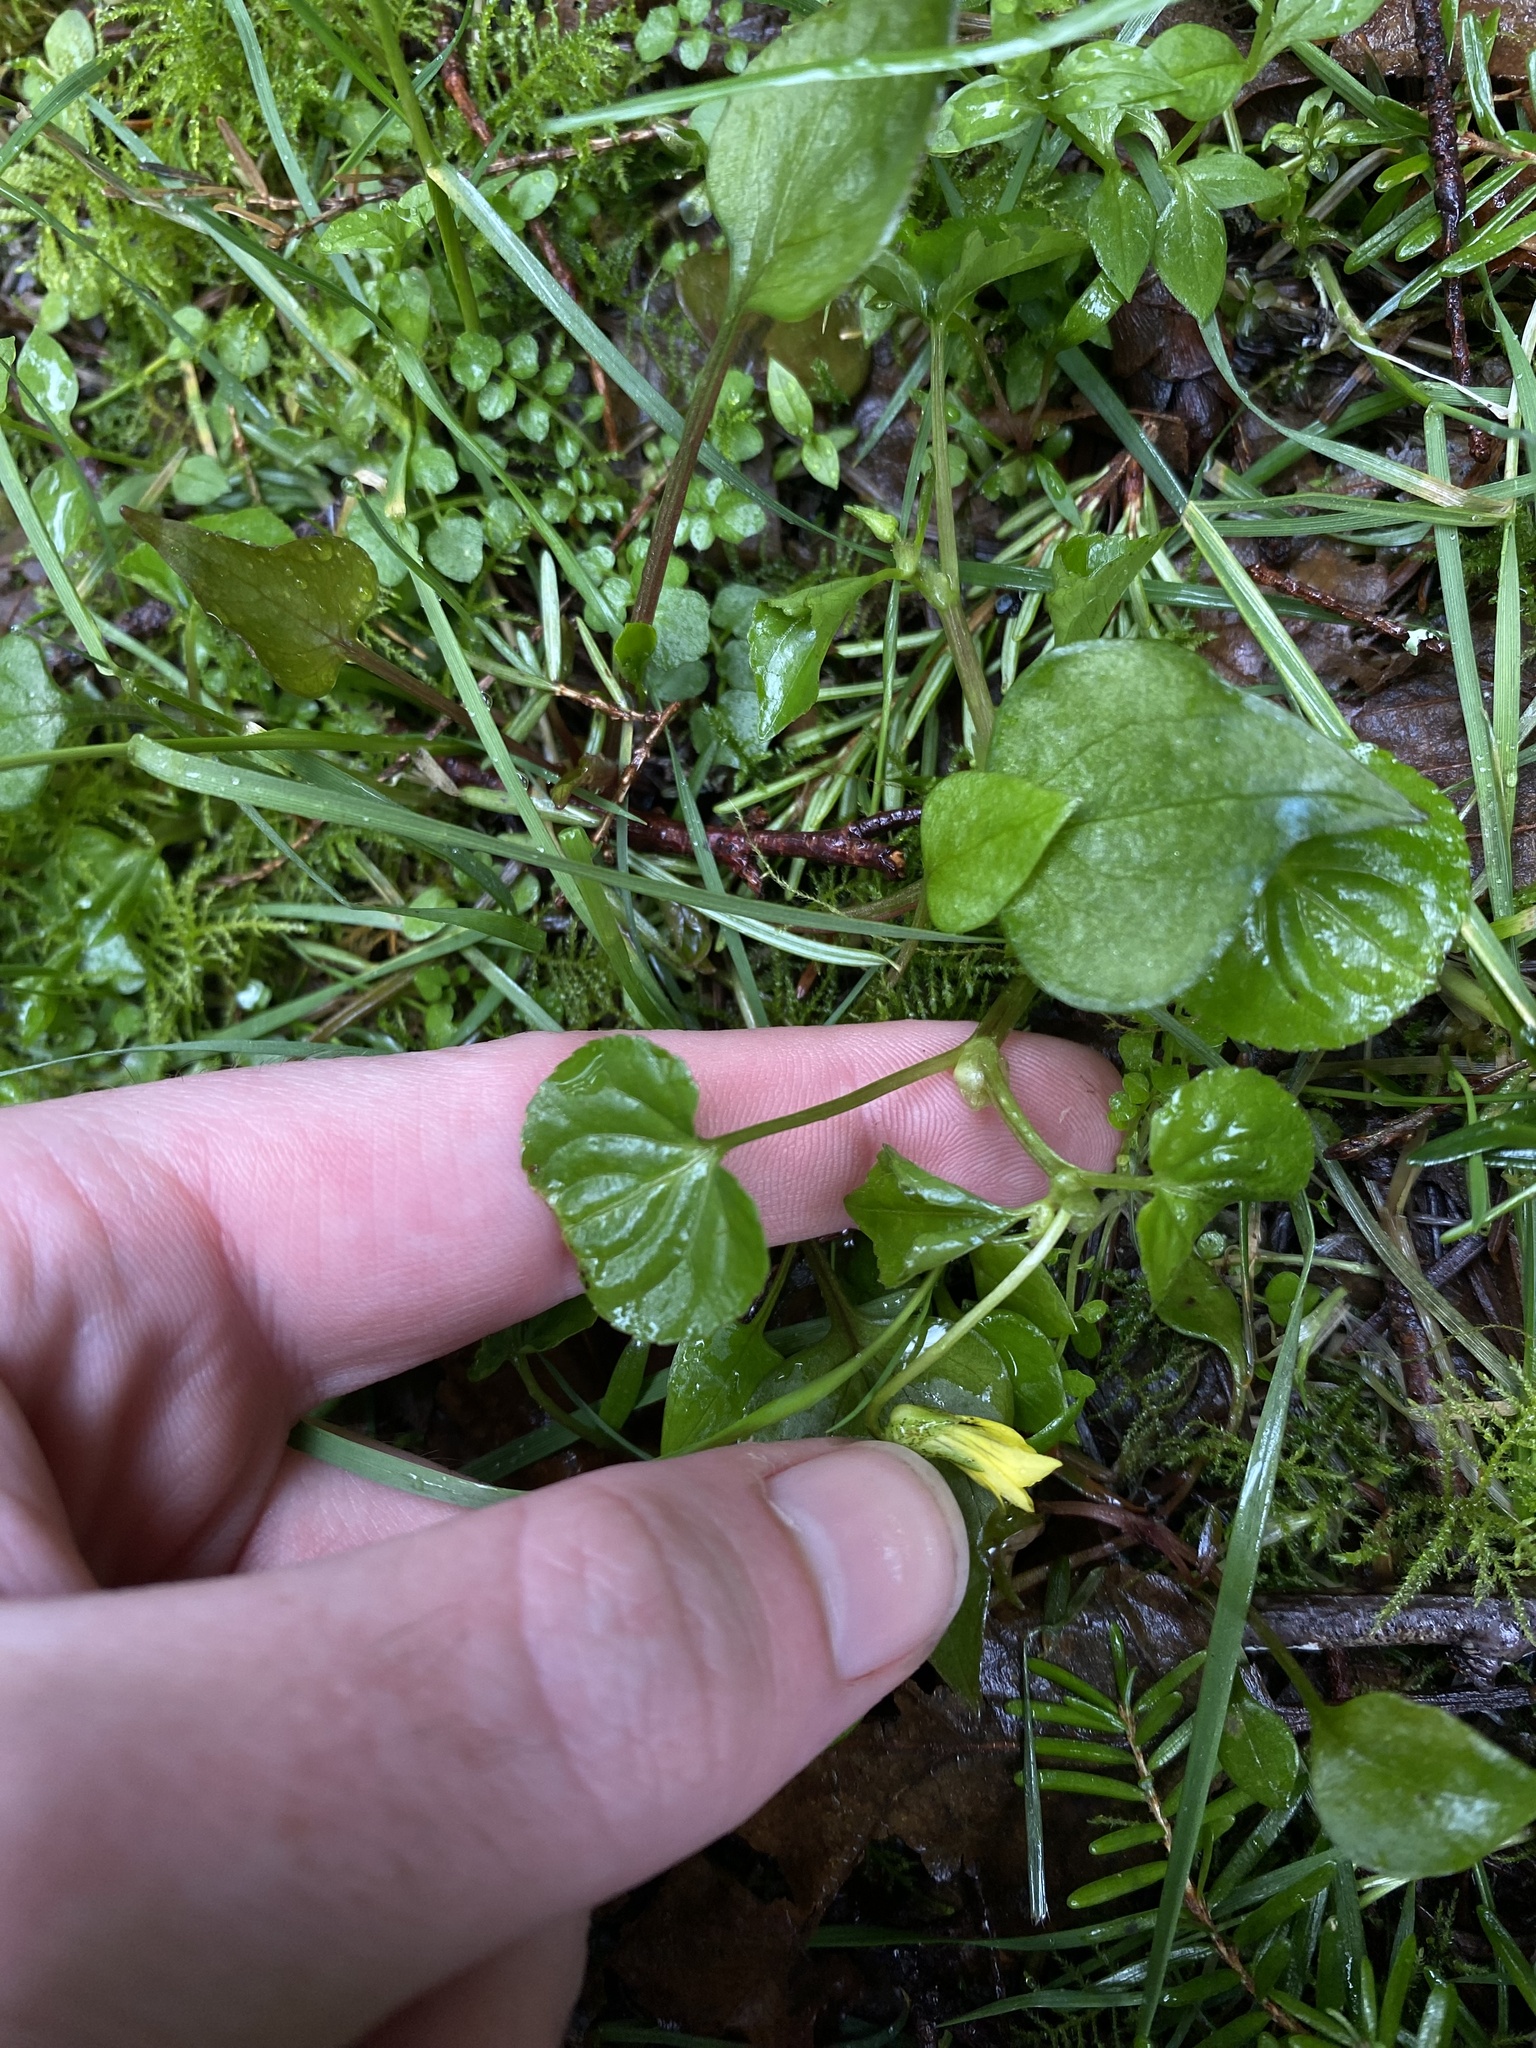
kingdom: Plantae
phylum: Tracheophyta
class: Magnoliopsida
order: Malpighiales
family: Violaceae
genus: Viola
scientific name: Viola glabella
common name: Stream violet
